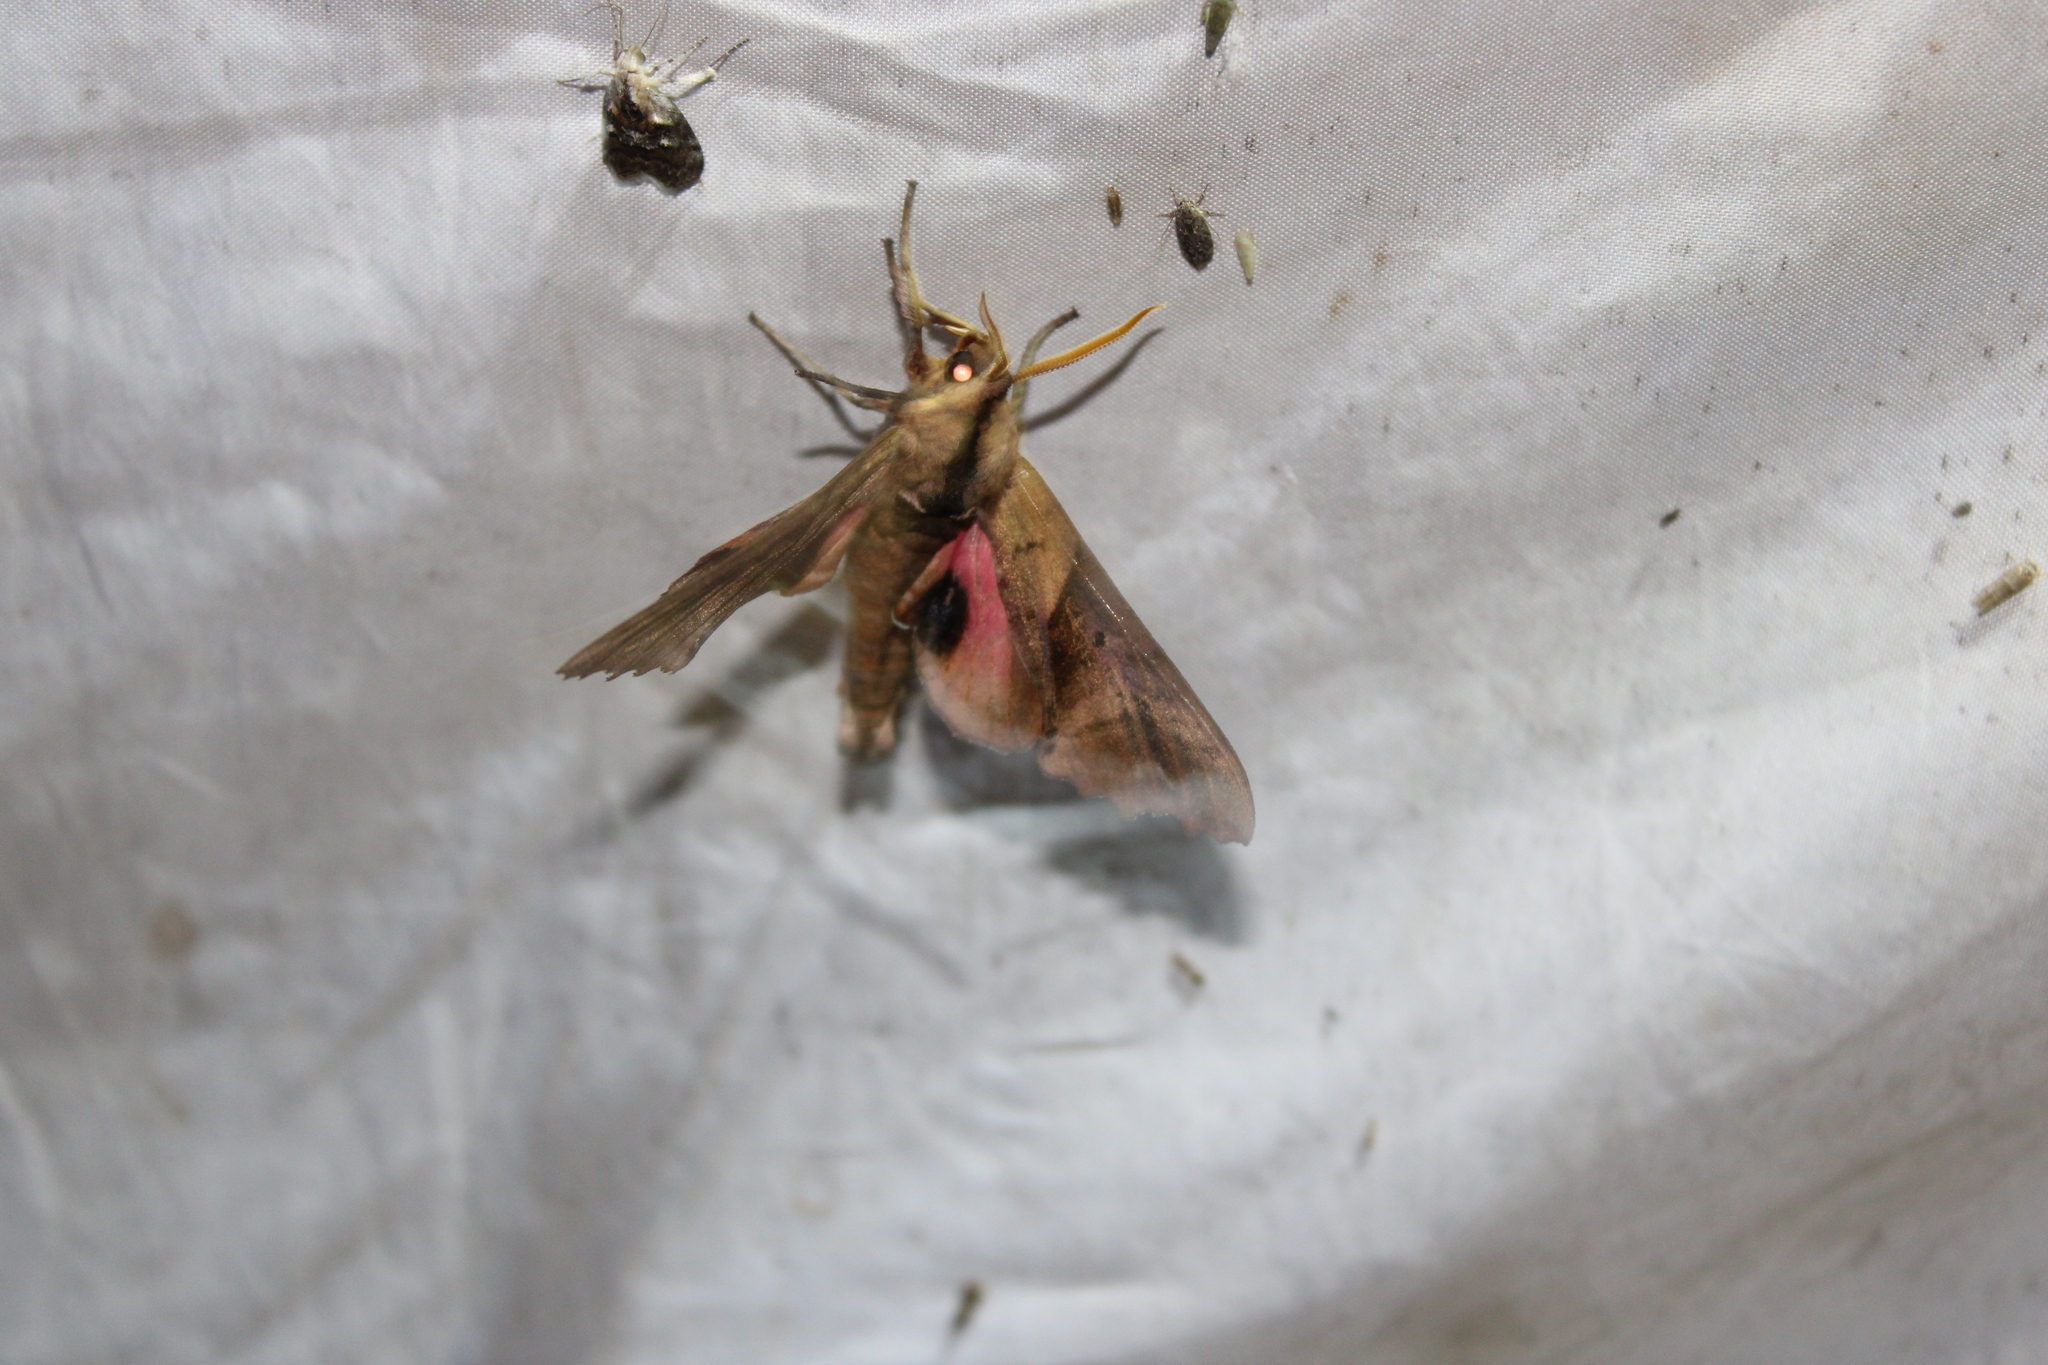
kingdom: Animalia
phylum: Arthropoda
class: Insecta
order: Lepidoptera
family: Sphingidae
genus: Paonias
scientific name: Paonias excaecata
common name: Blind-eyed sphinx
